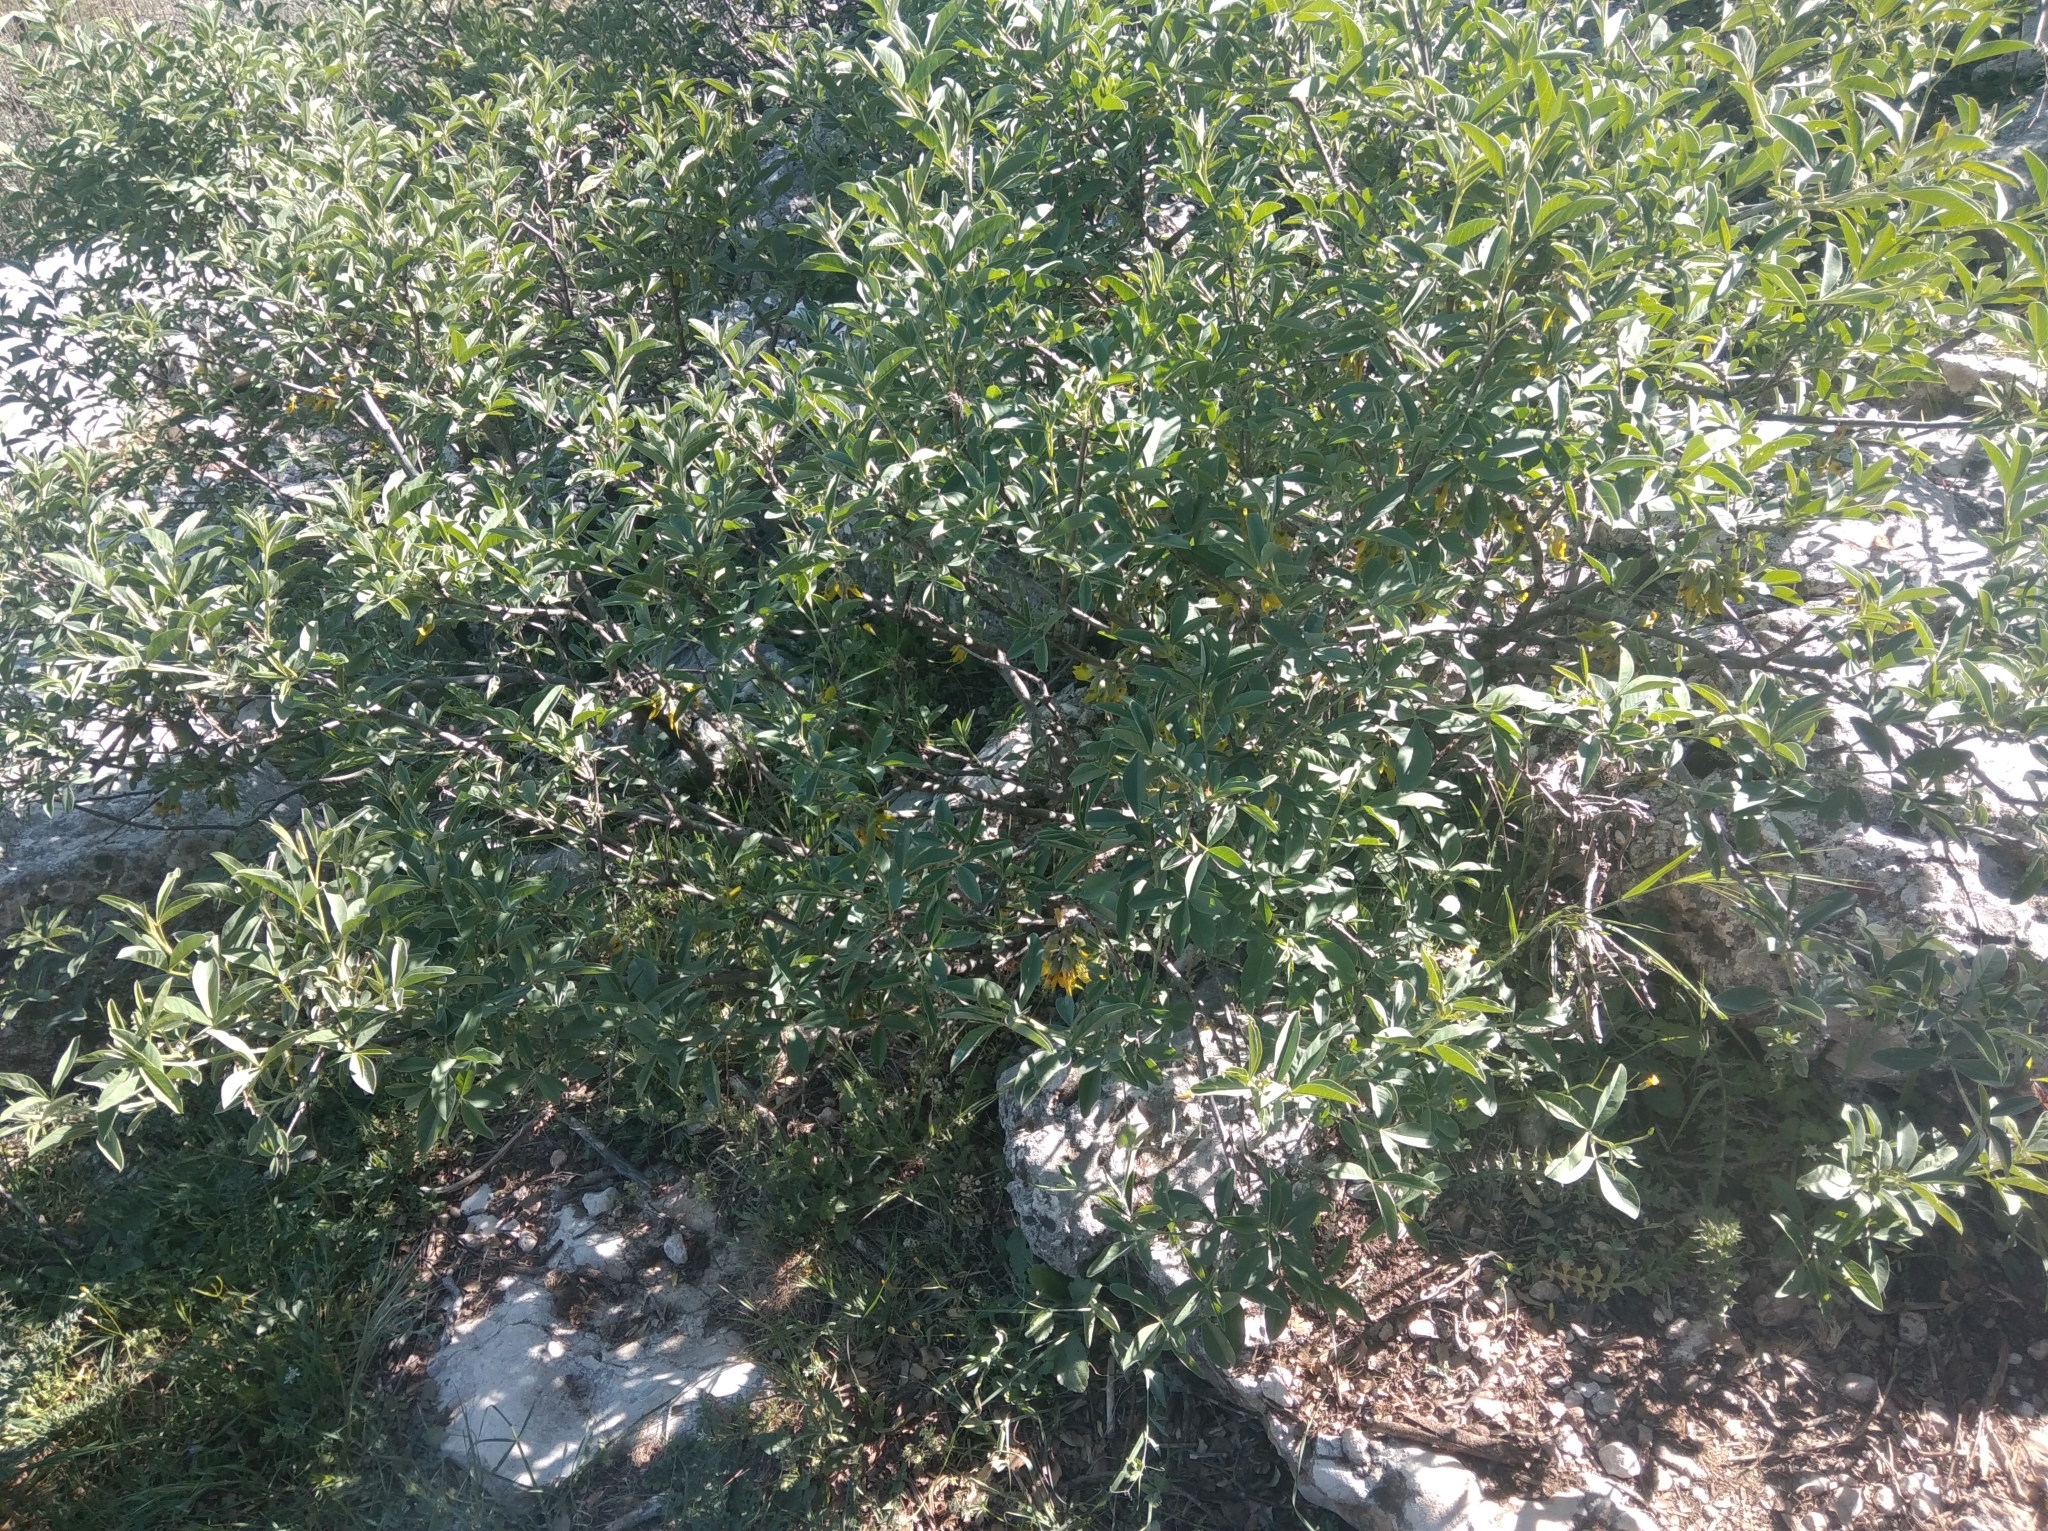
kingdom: Plantae
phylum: Tracheophyta
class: Magnoliopsida
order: Fabales
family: Fabaceae
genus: Anagyris
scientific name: Anagyris foetida
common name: Stinking bean trefoil
